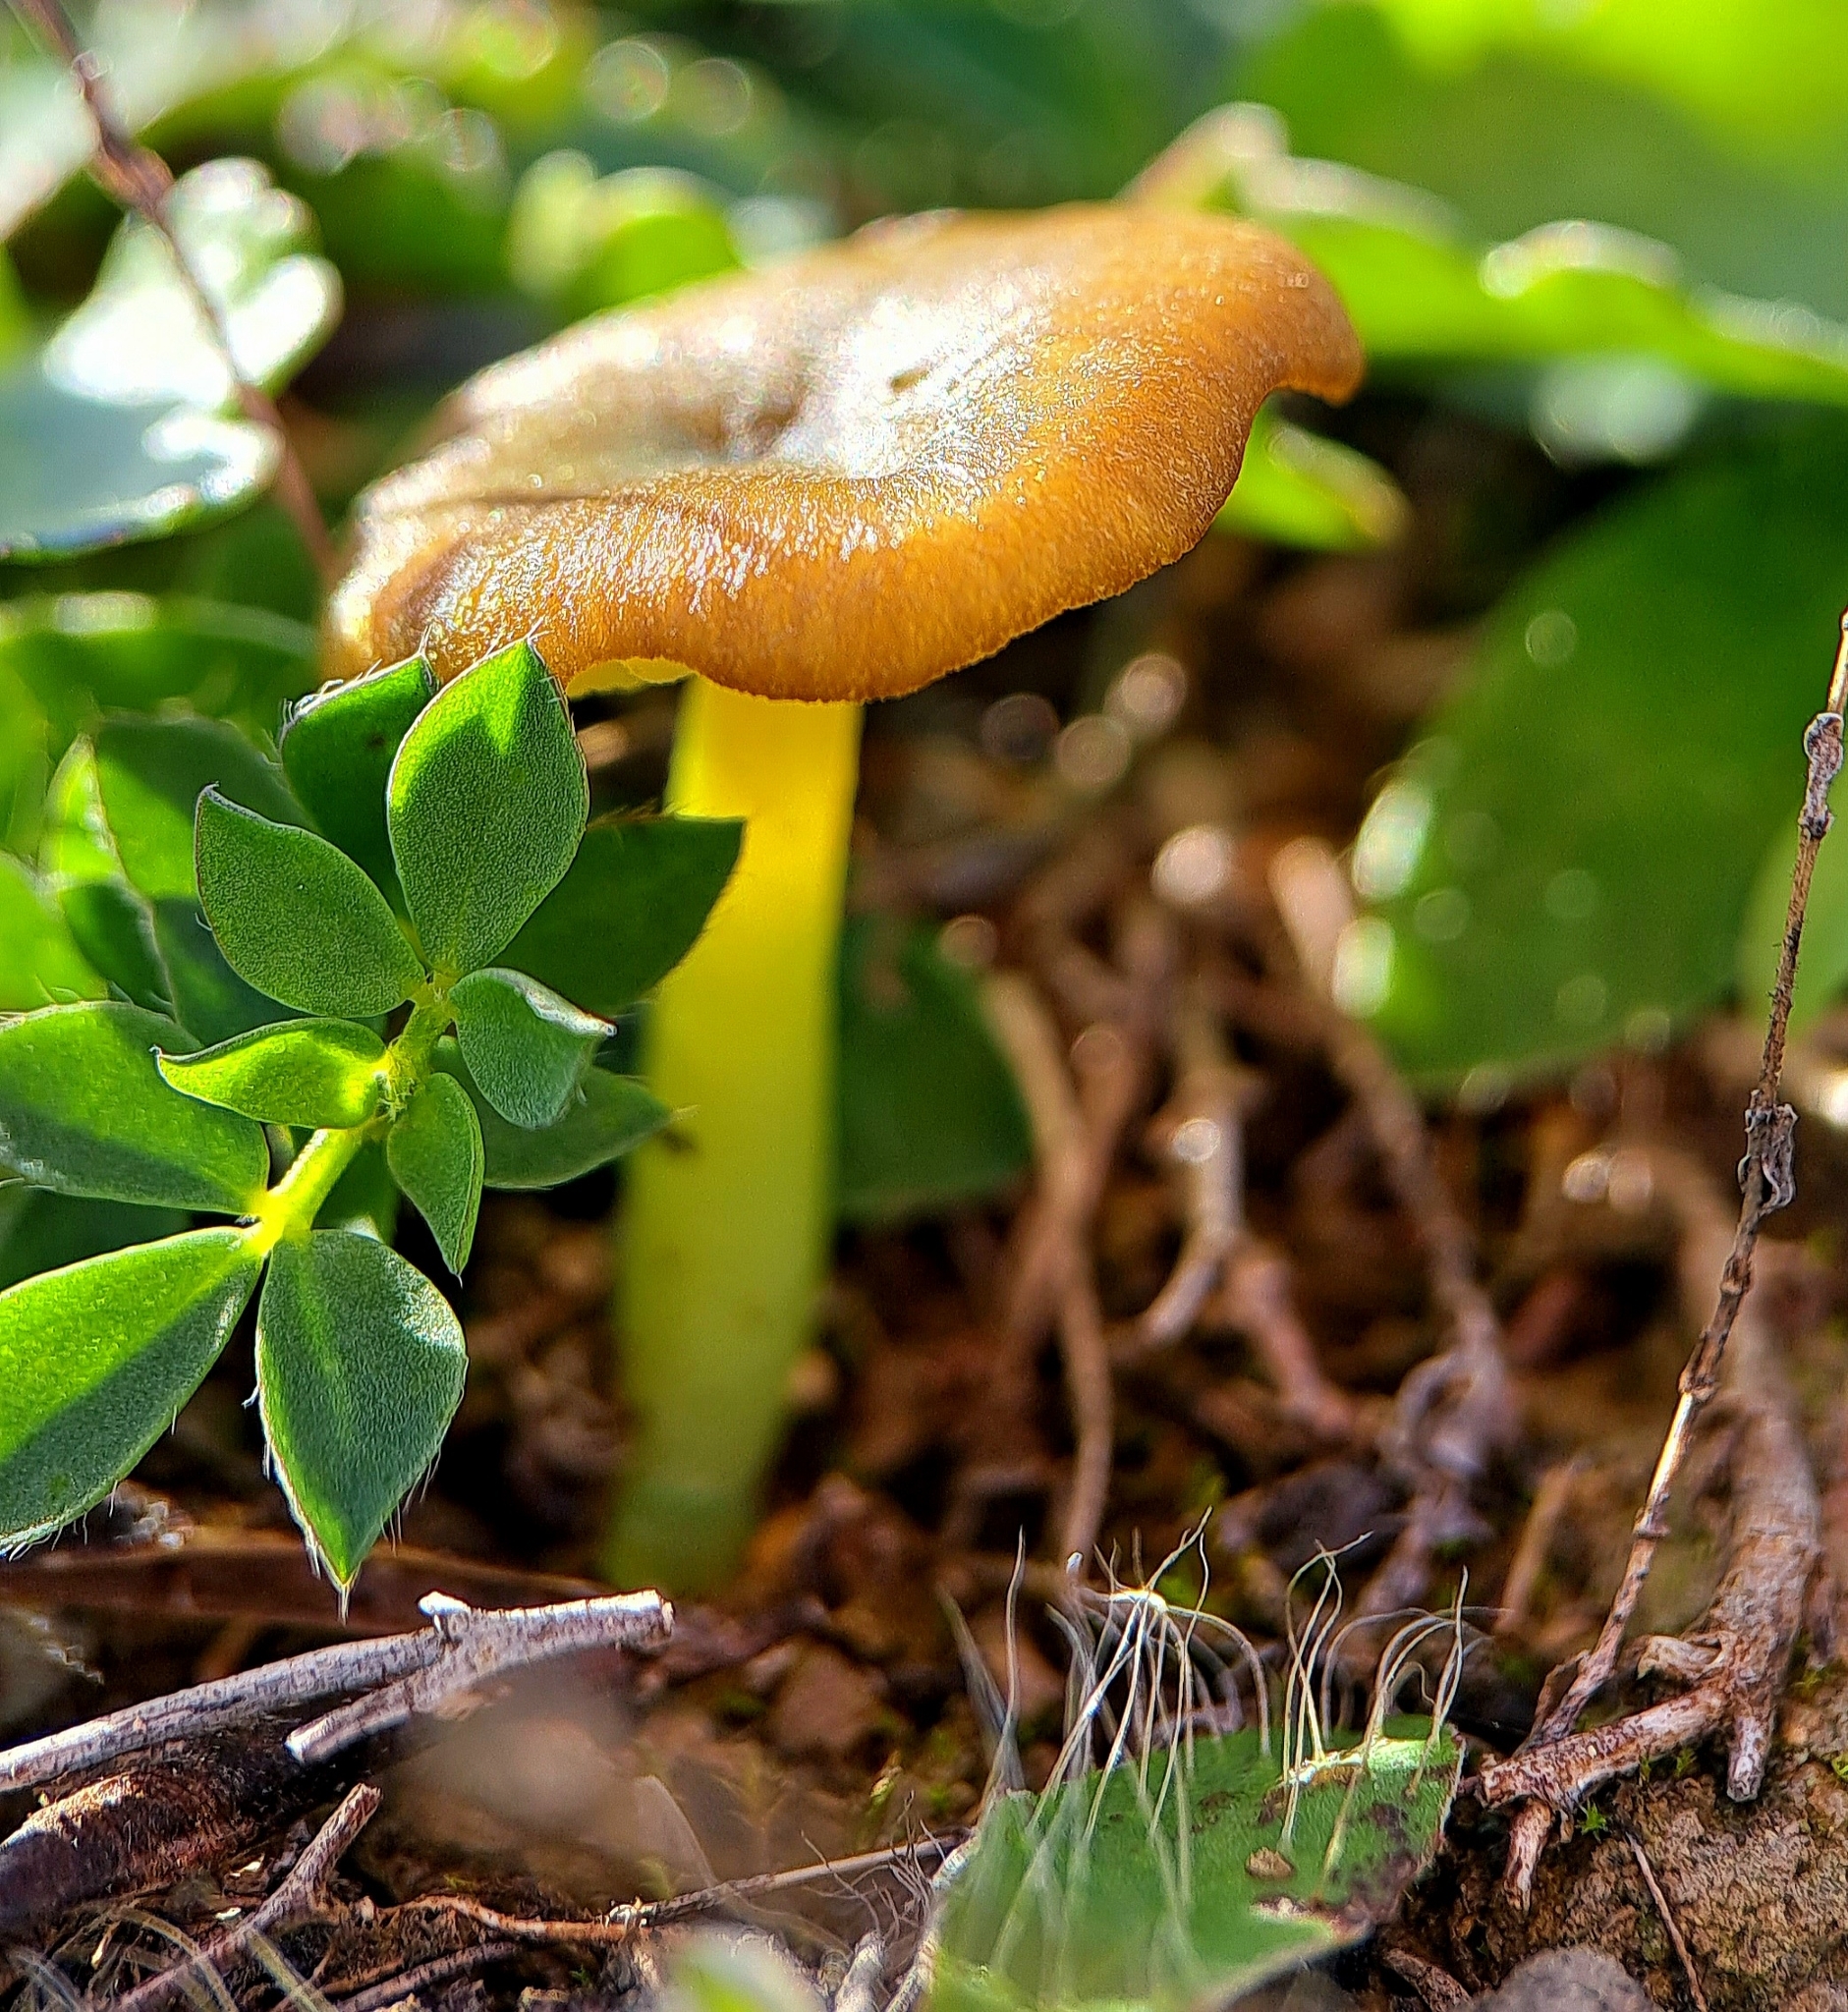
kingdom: Fungi
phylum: Basidiomycota
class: Agaricomycetes
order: Agaricales
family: Entolomataceae
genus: Entoloma
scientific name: Entoloma incanum
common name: Mousepee pinkgill
